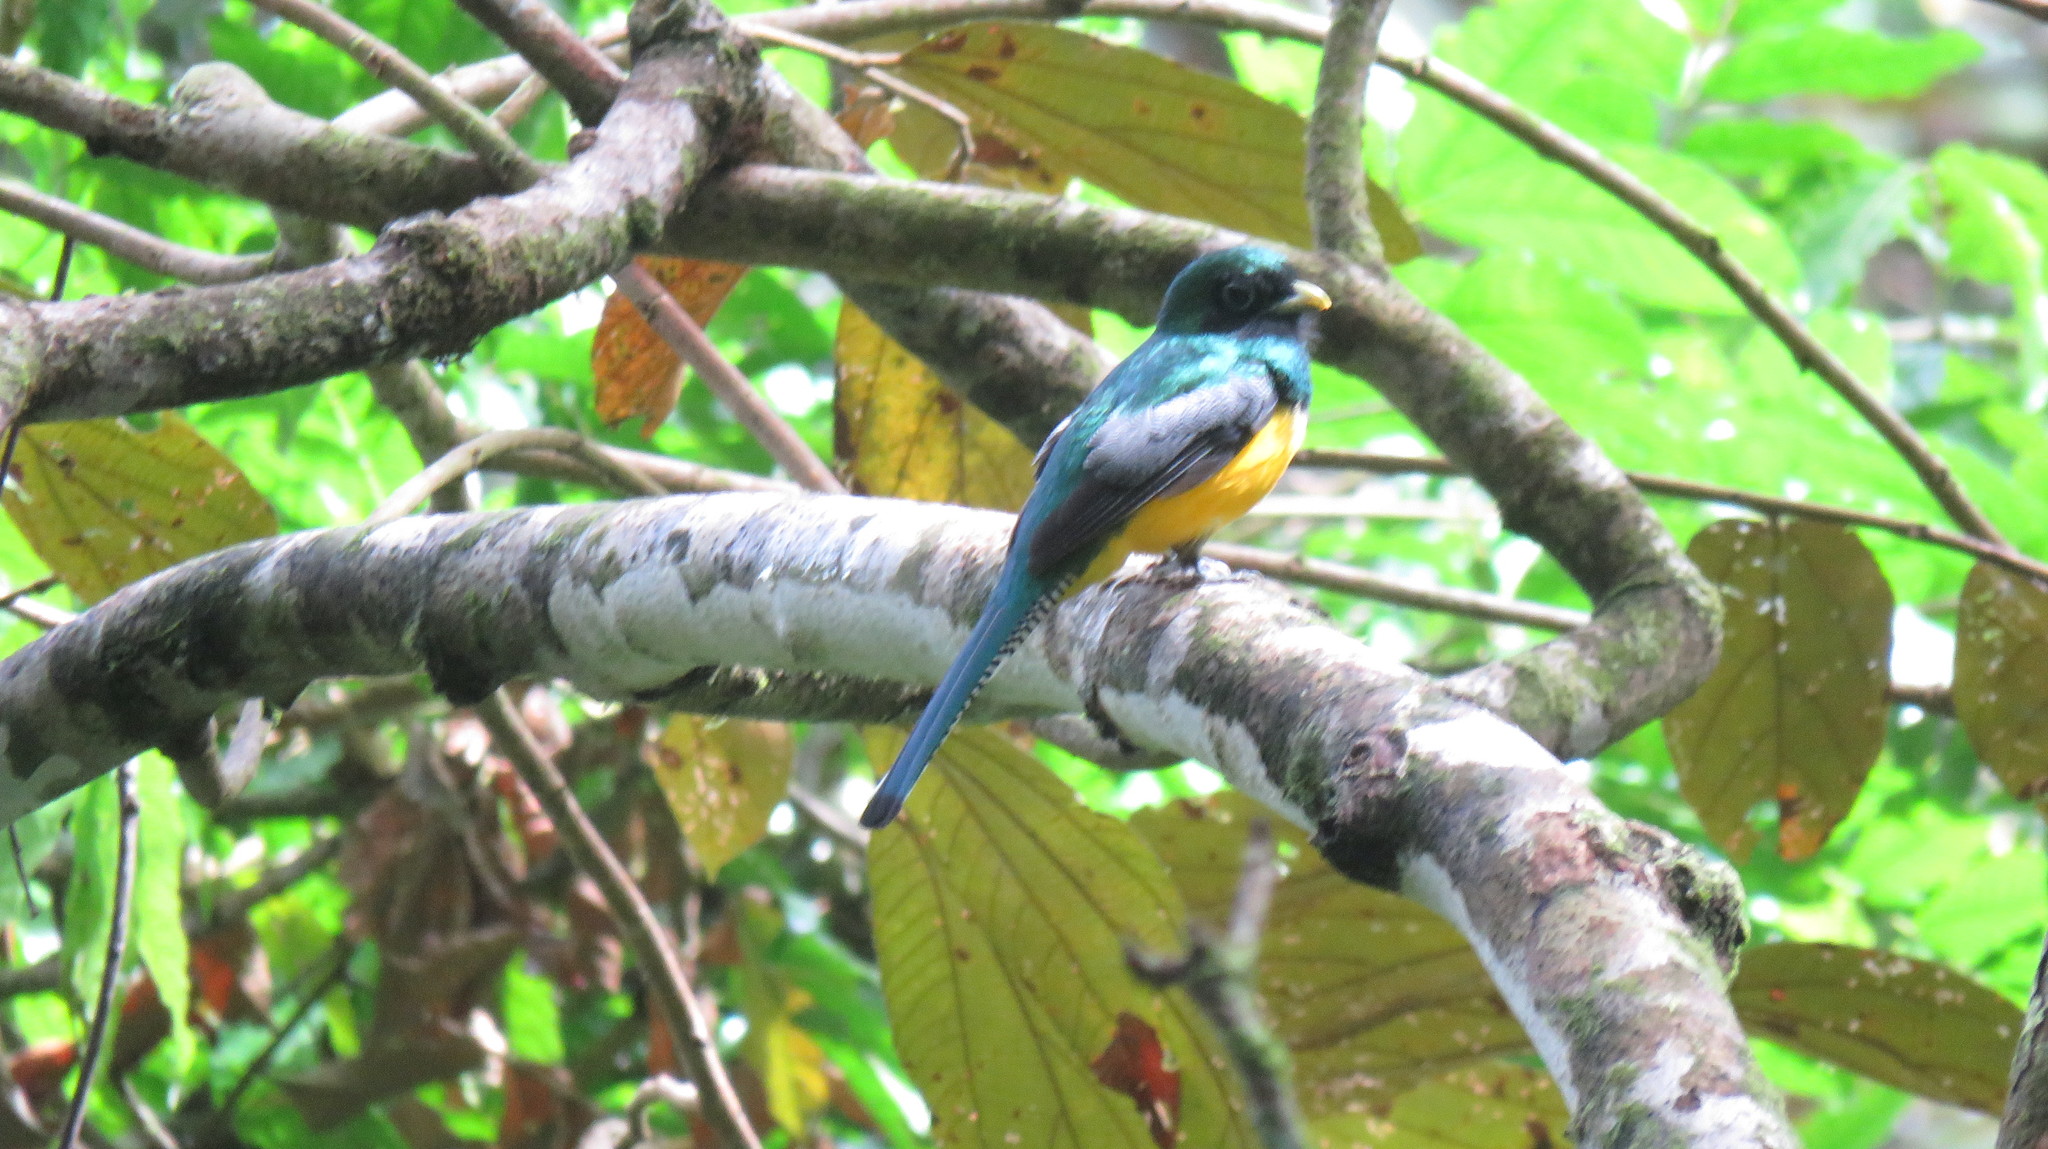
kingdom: Animalia
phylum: Chordata
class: Aves
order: Trogoniformes
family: Trogonidae
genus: Trogon
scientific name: Trogon rufus
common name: Black-throated trogon
